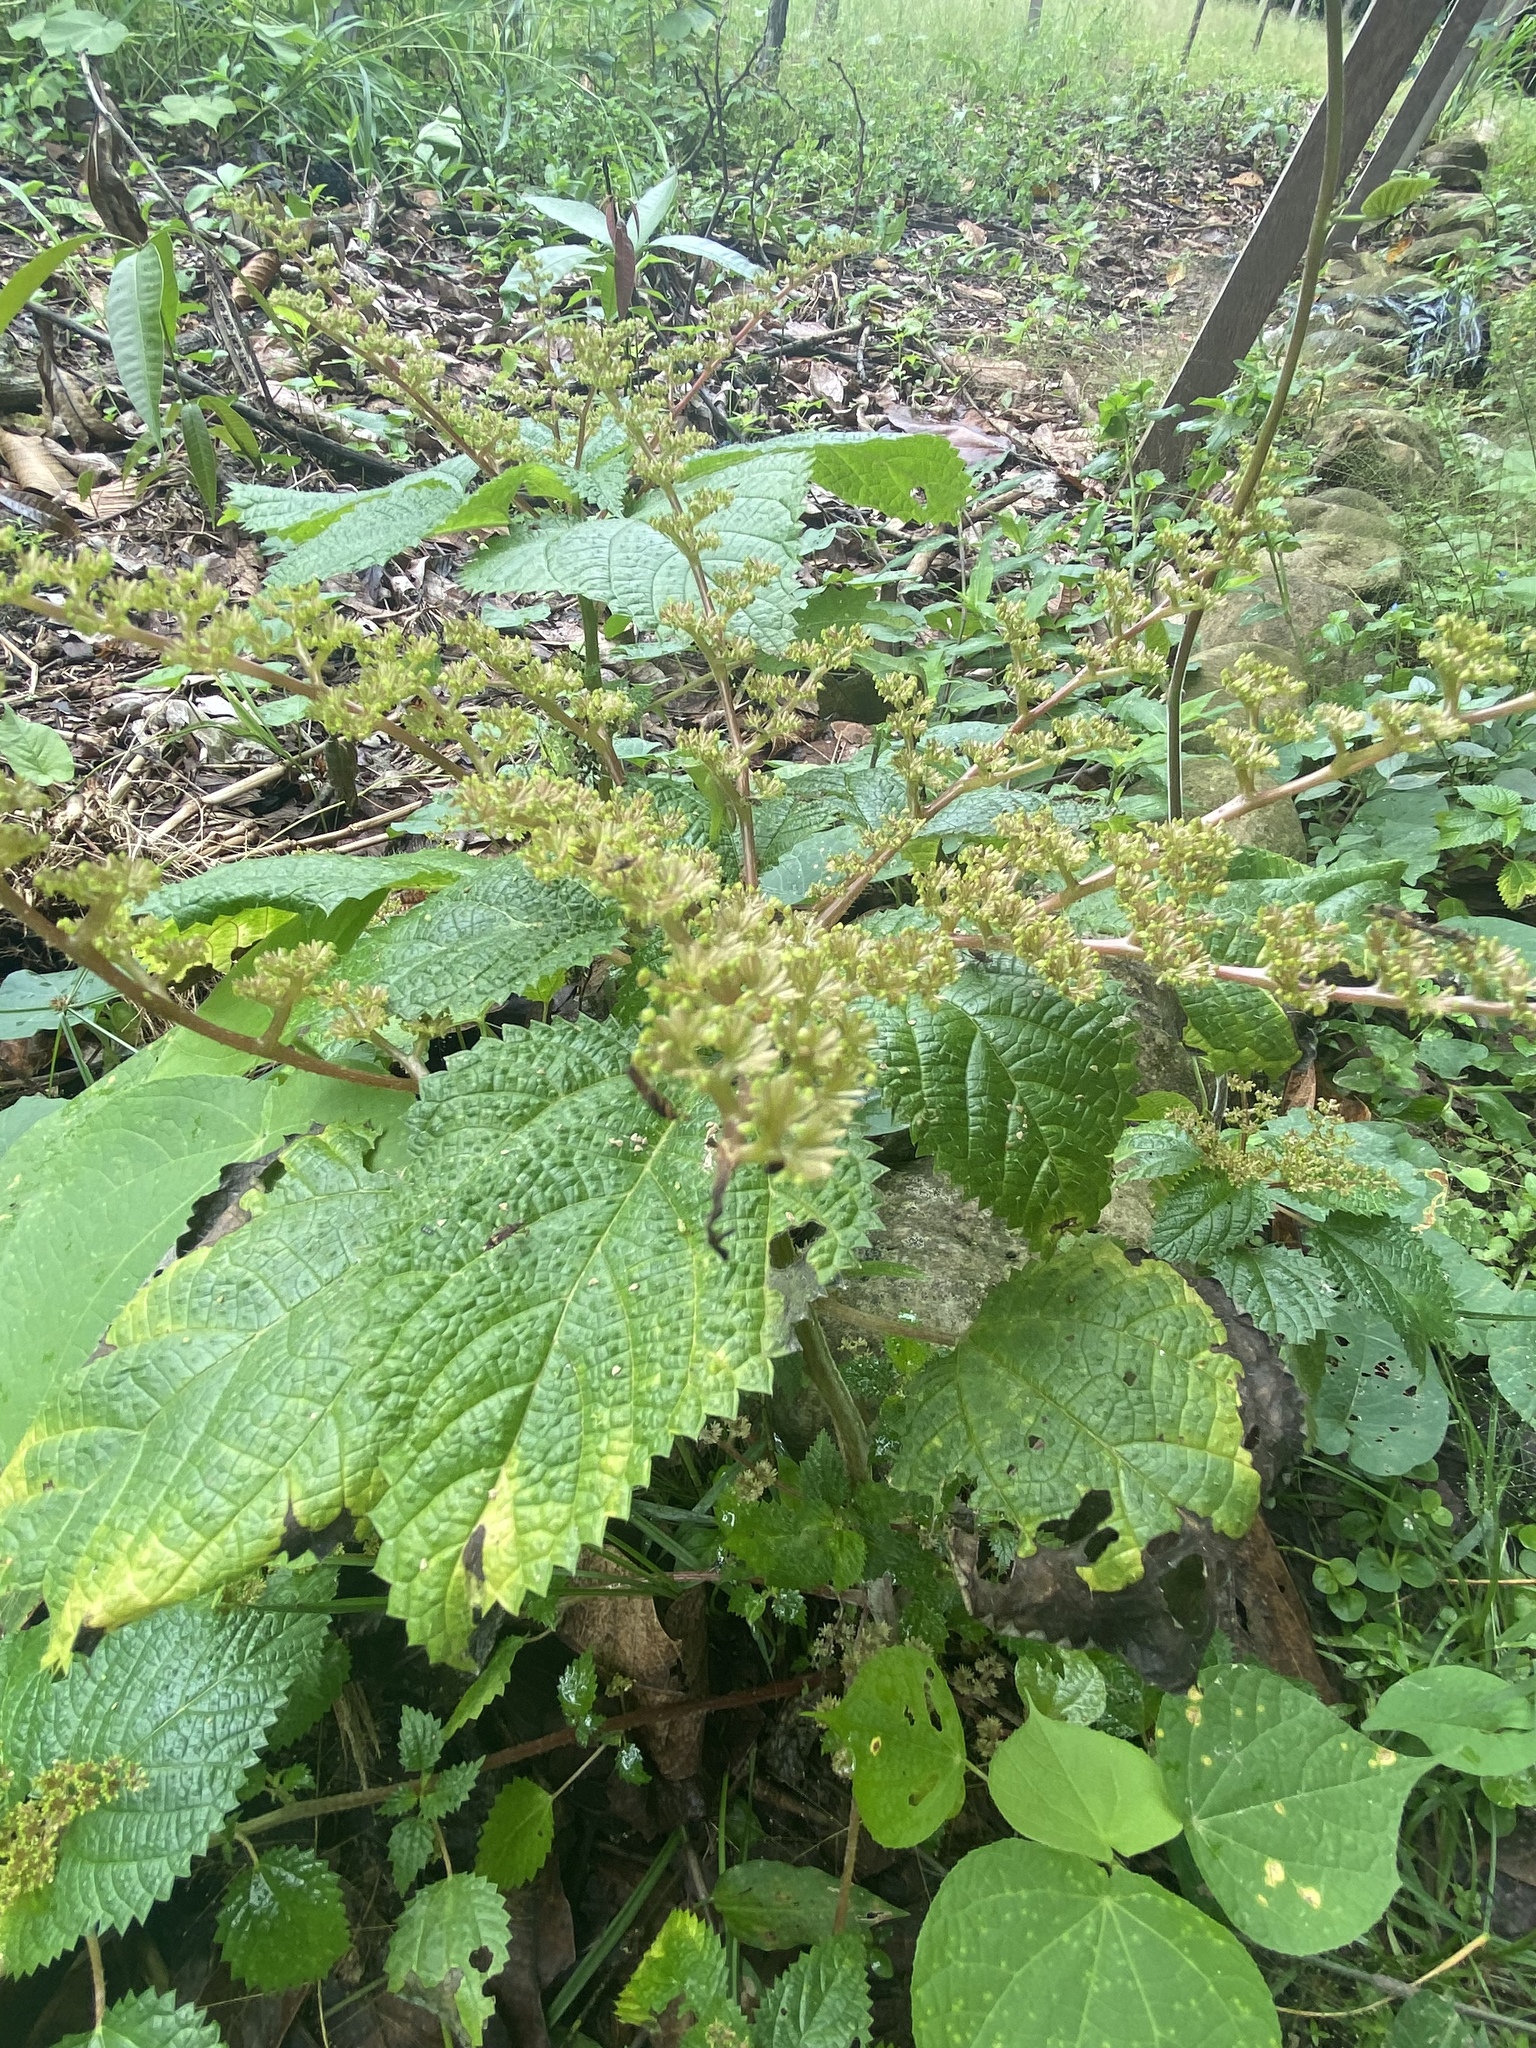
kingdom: Plantae
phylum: Tracheophyta
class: Magnoliopsida
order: Rosales
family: Urticaceae
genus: Laportea
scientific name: Laportea aestuans
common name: West indian woodnettle
